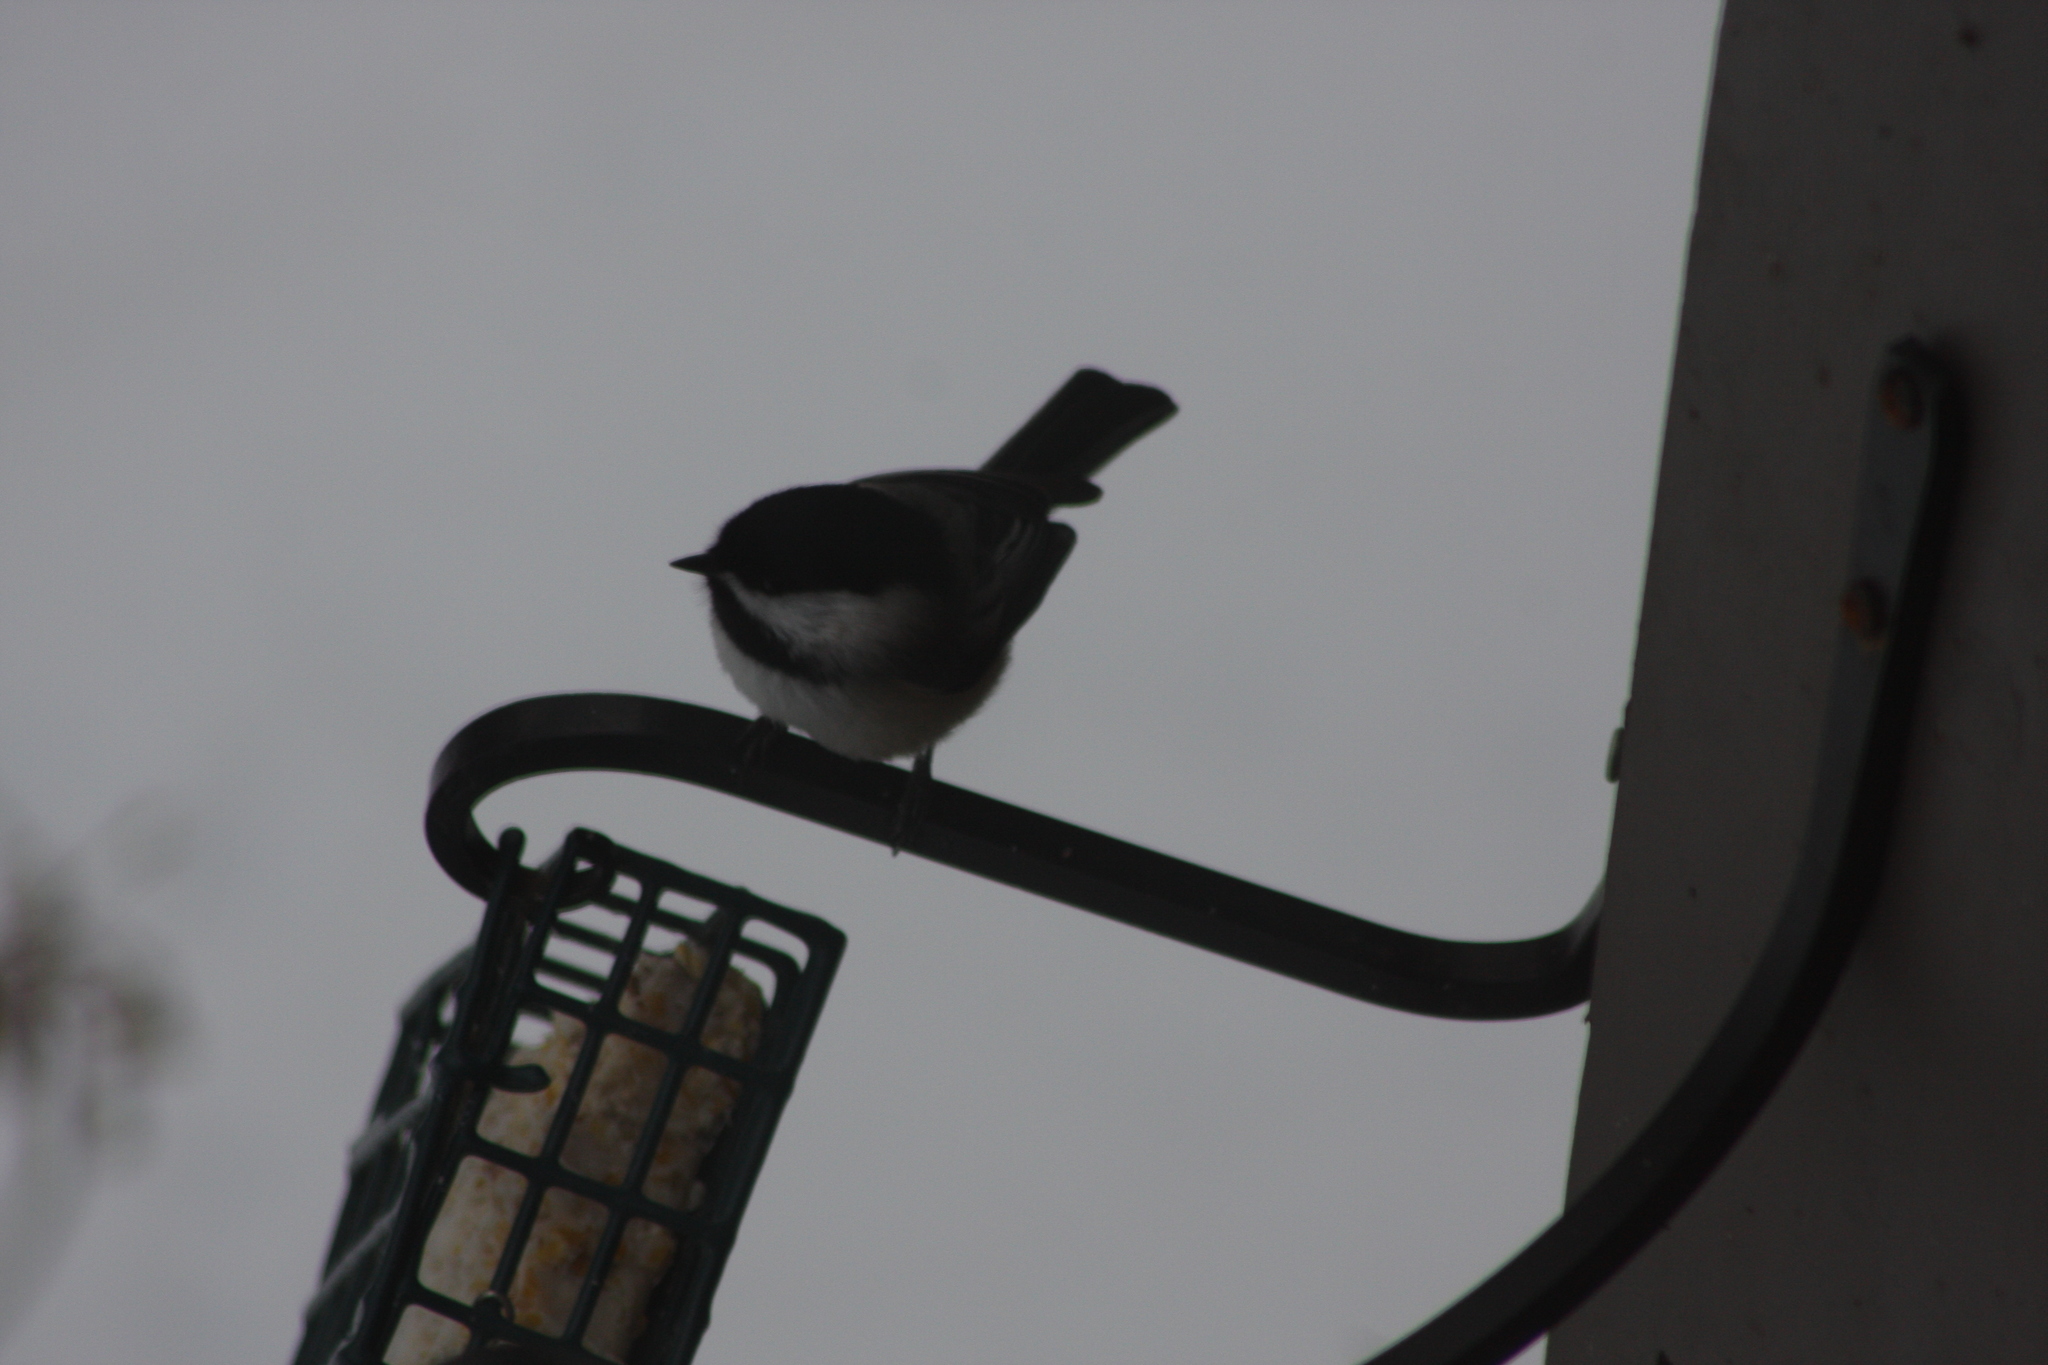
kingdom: Animalia
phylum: Chordata
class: Aves
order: Passeriformes
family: Paridae
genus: Poecile
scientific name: Poecile atricapillus
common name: Black-capped chickadee
